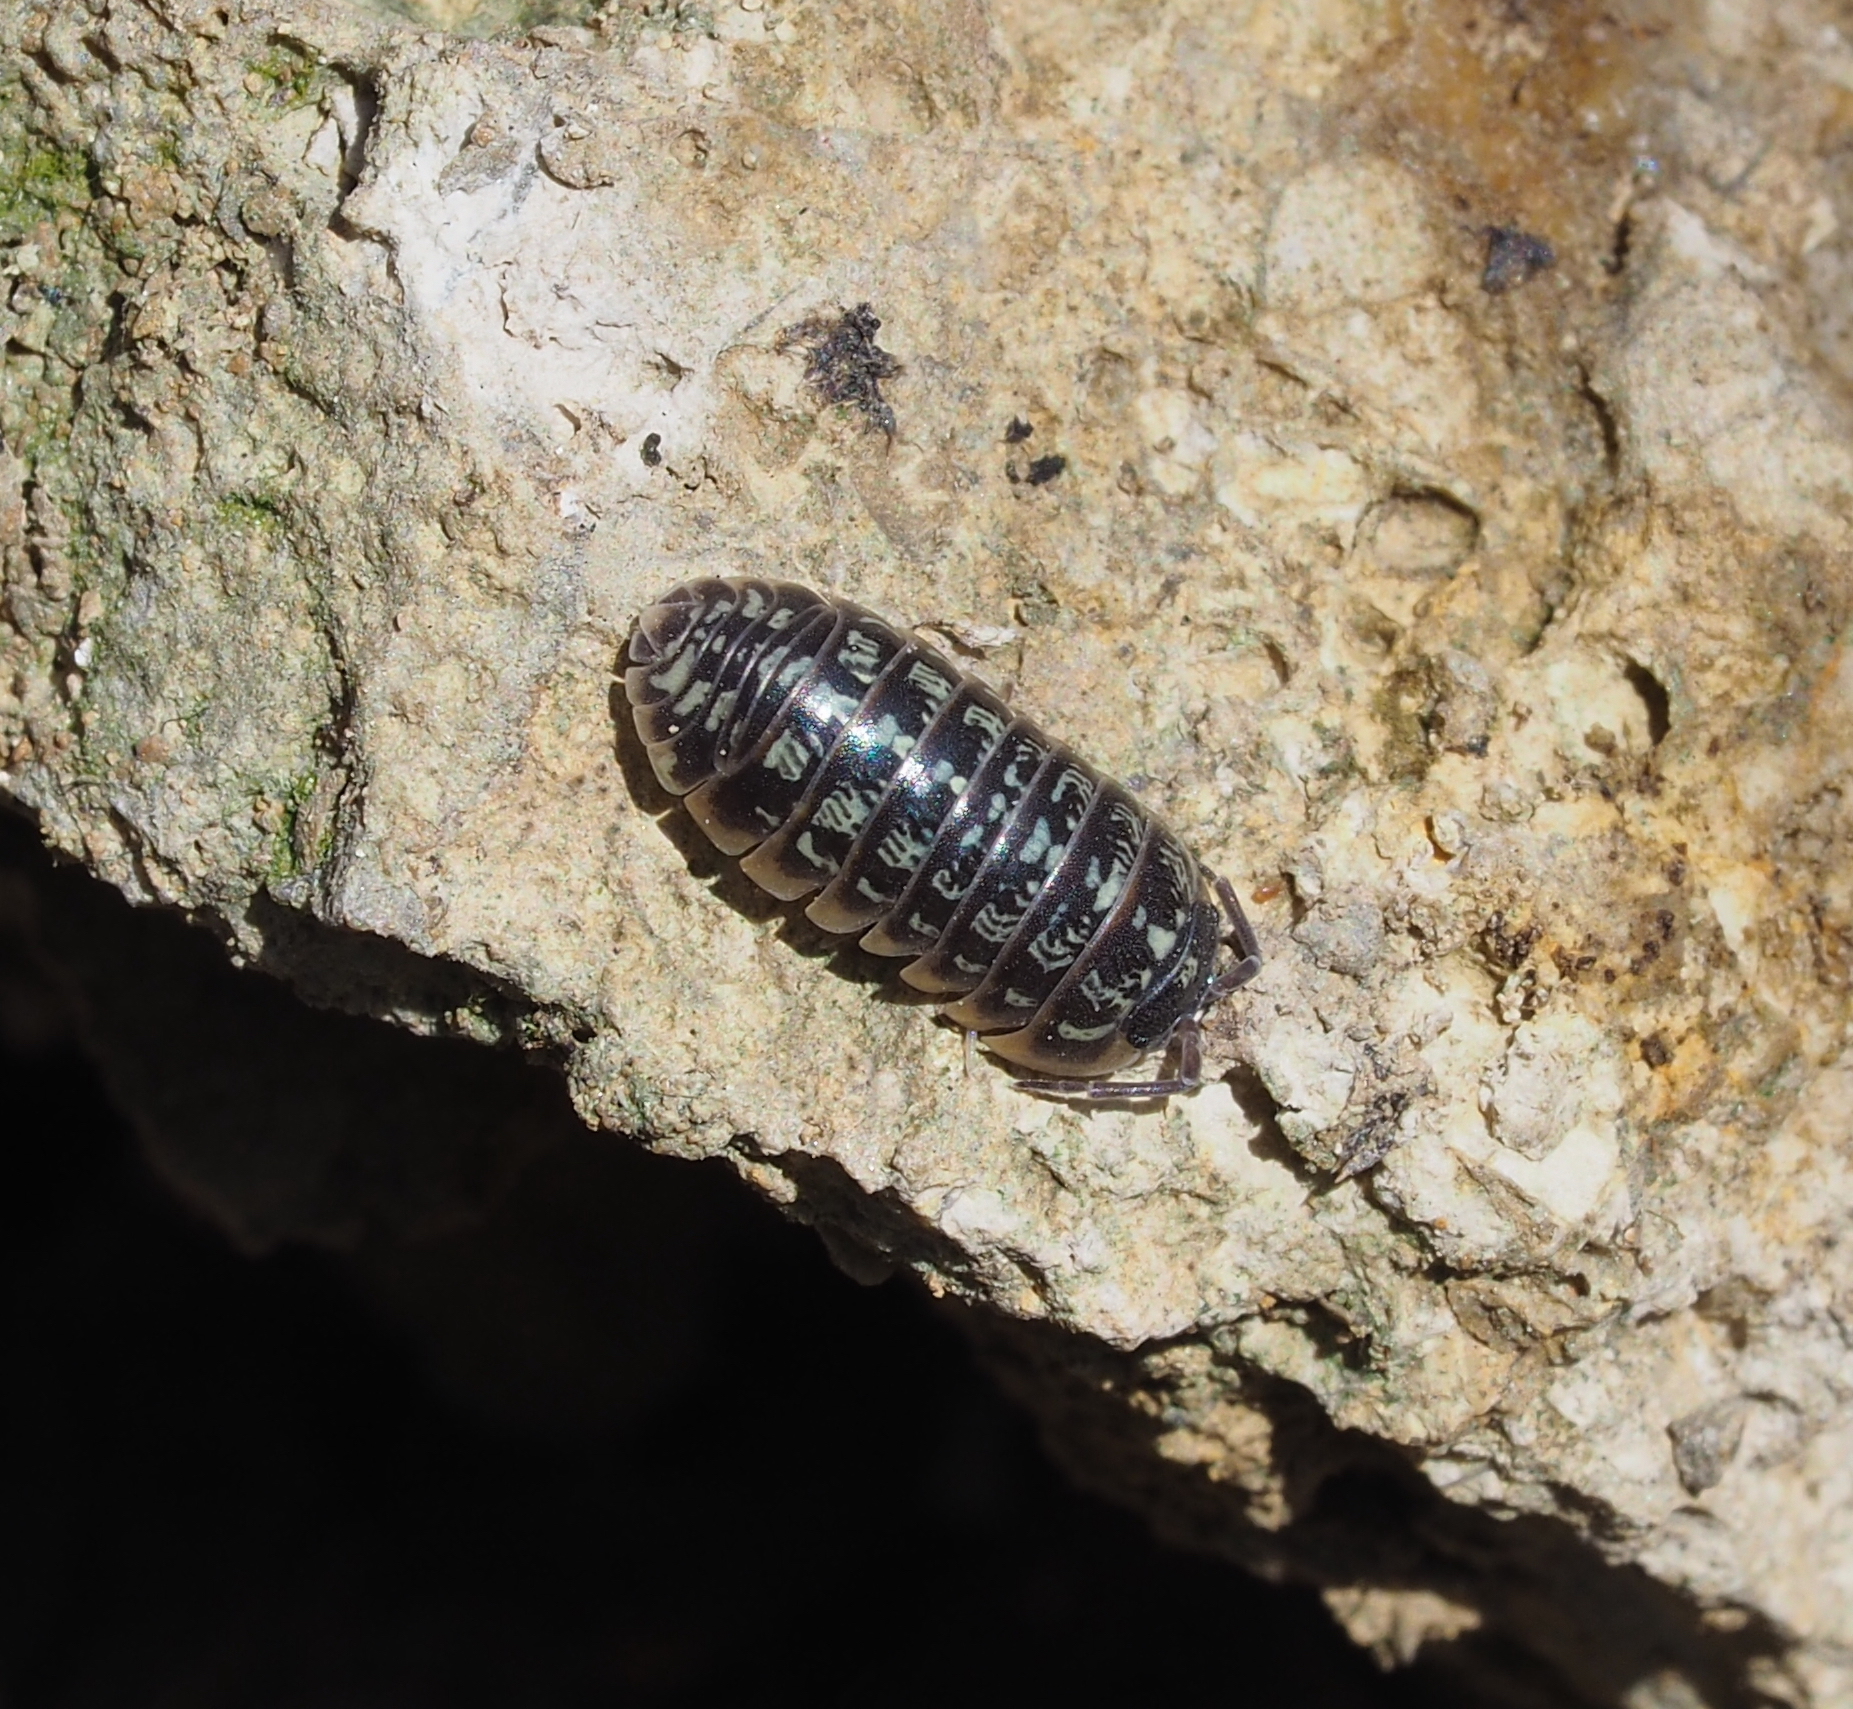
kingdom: Animalia
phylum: Arthropoda
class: Malacostraca
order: Isopoda
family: Armadillidiidae
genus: Armadillidium
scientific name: Armadillidium versicolor
